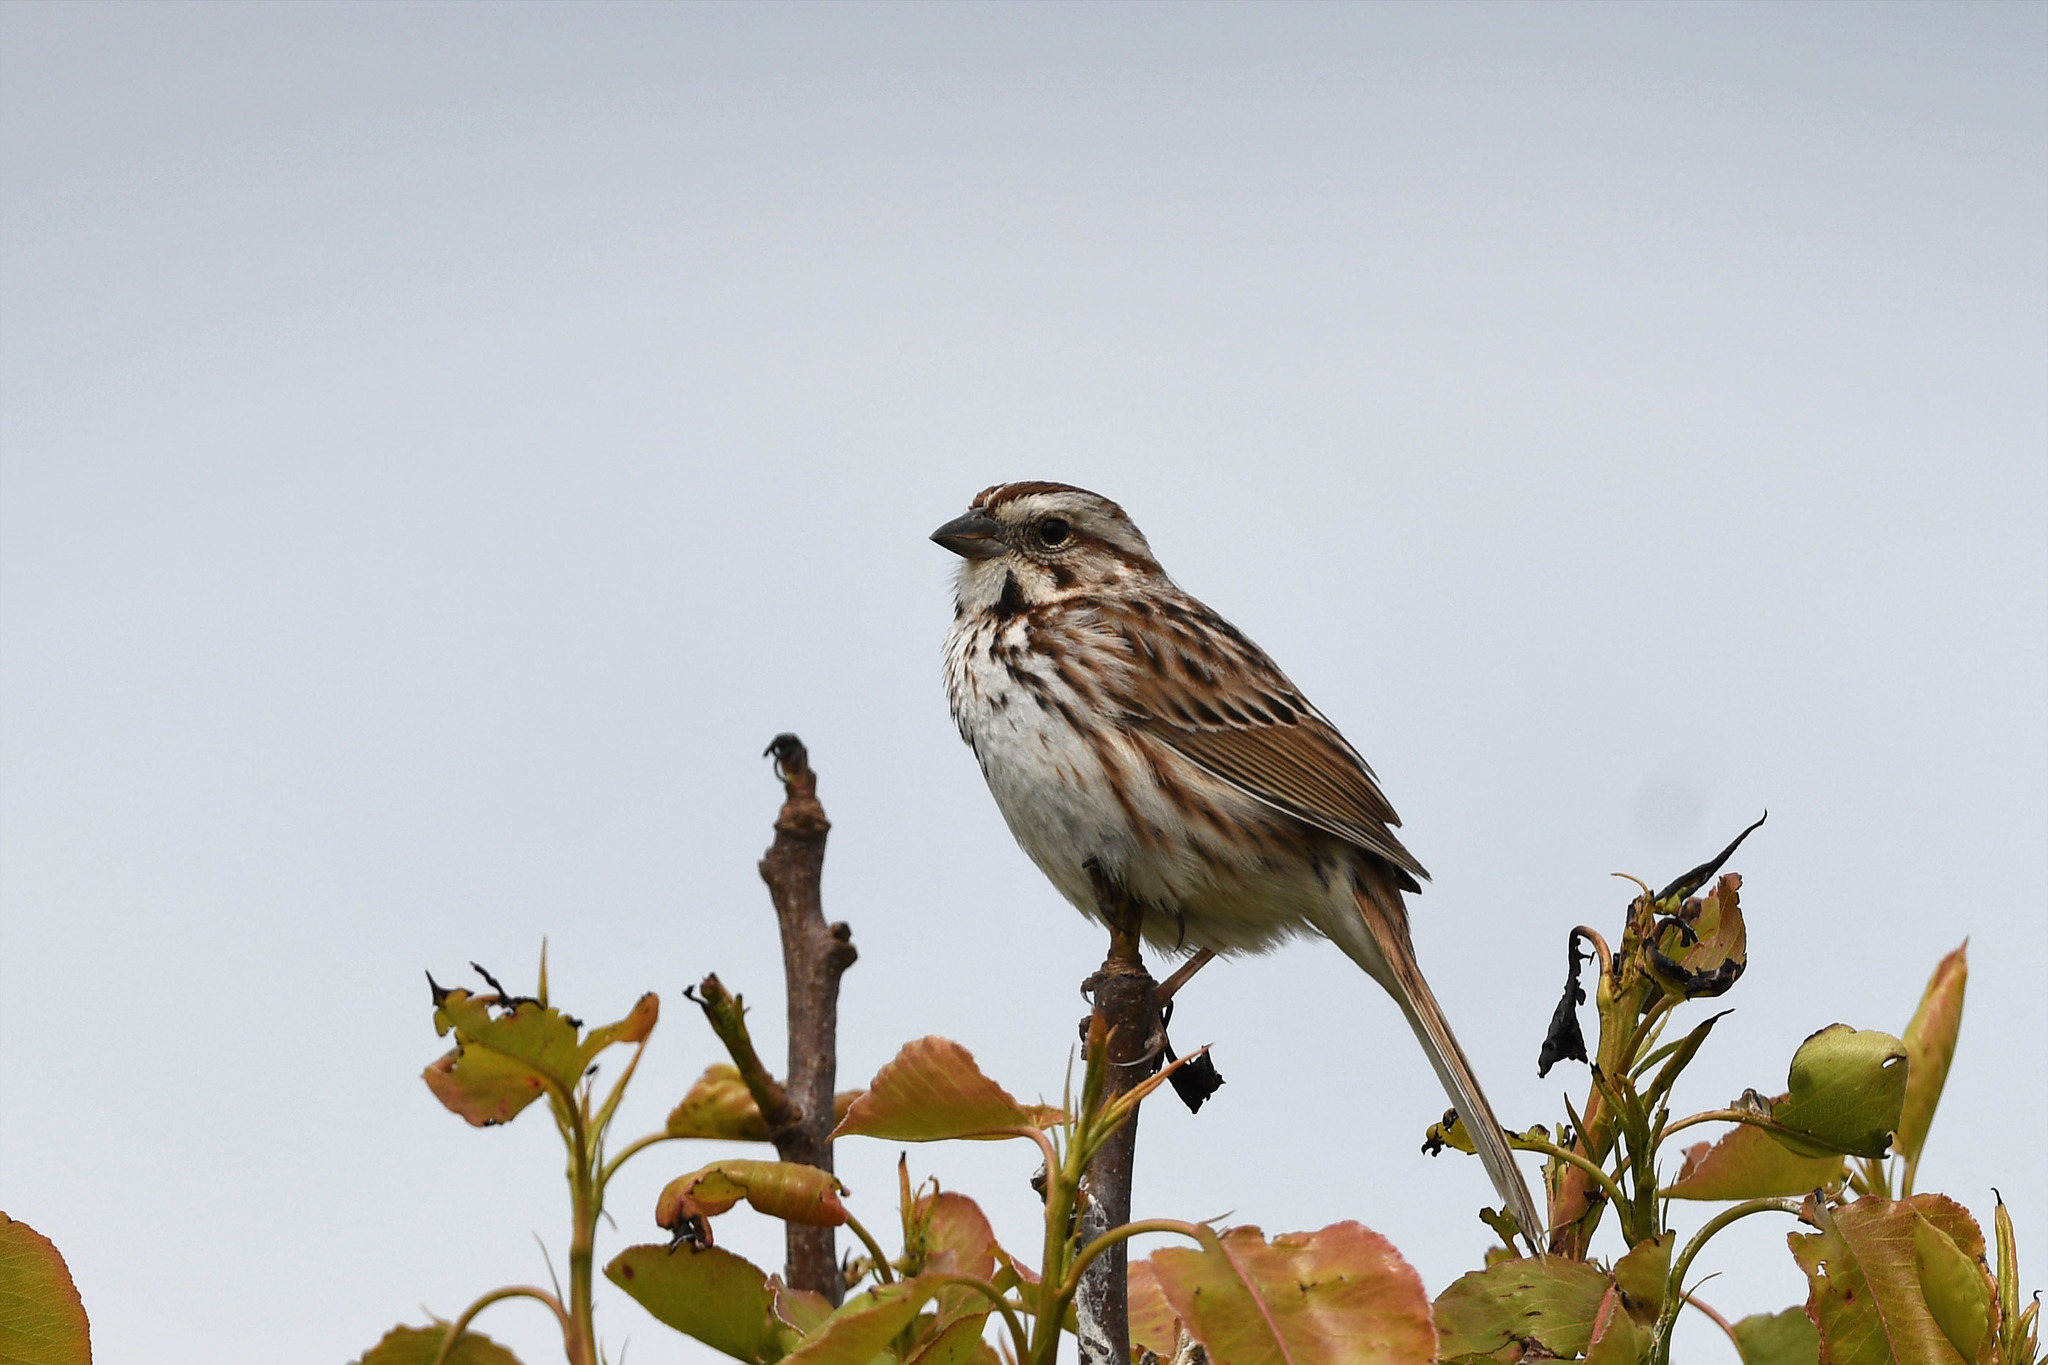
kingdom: Animalia
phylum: Chordata
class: Aves
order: Passeriformes
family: Passerellidae
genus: Melospiza
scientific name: Melospiza melodia
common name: Song sparrow
